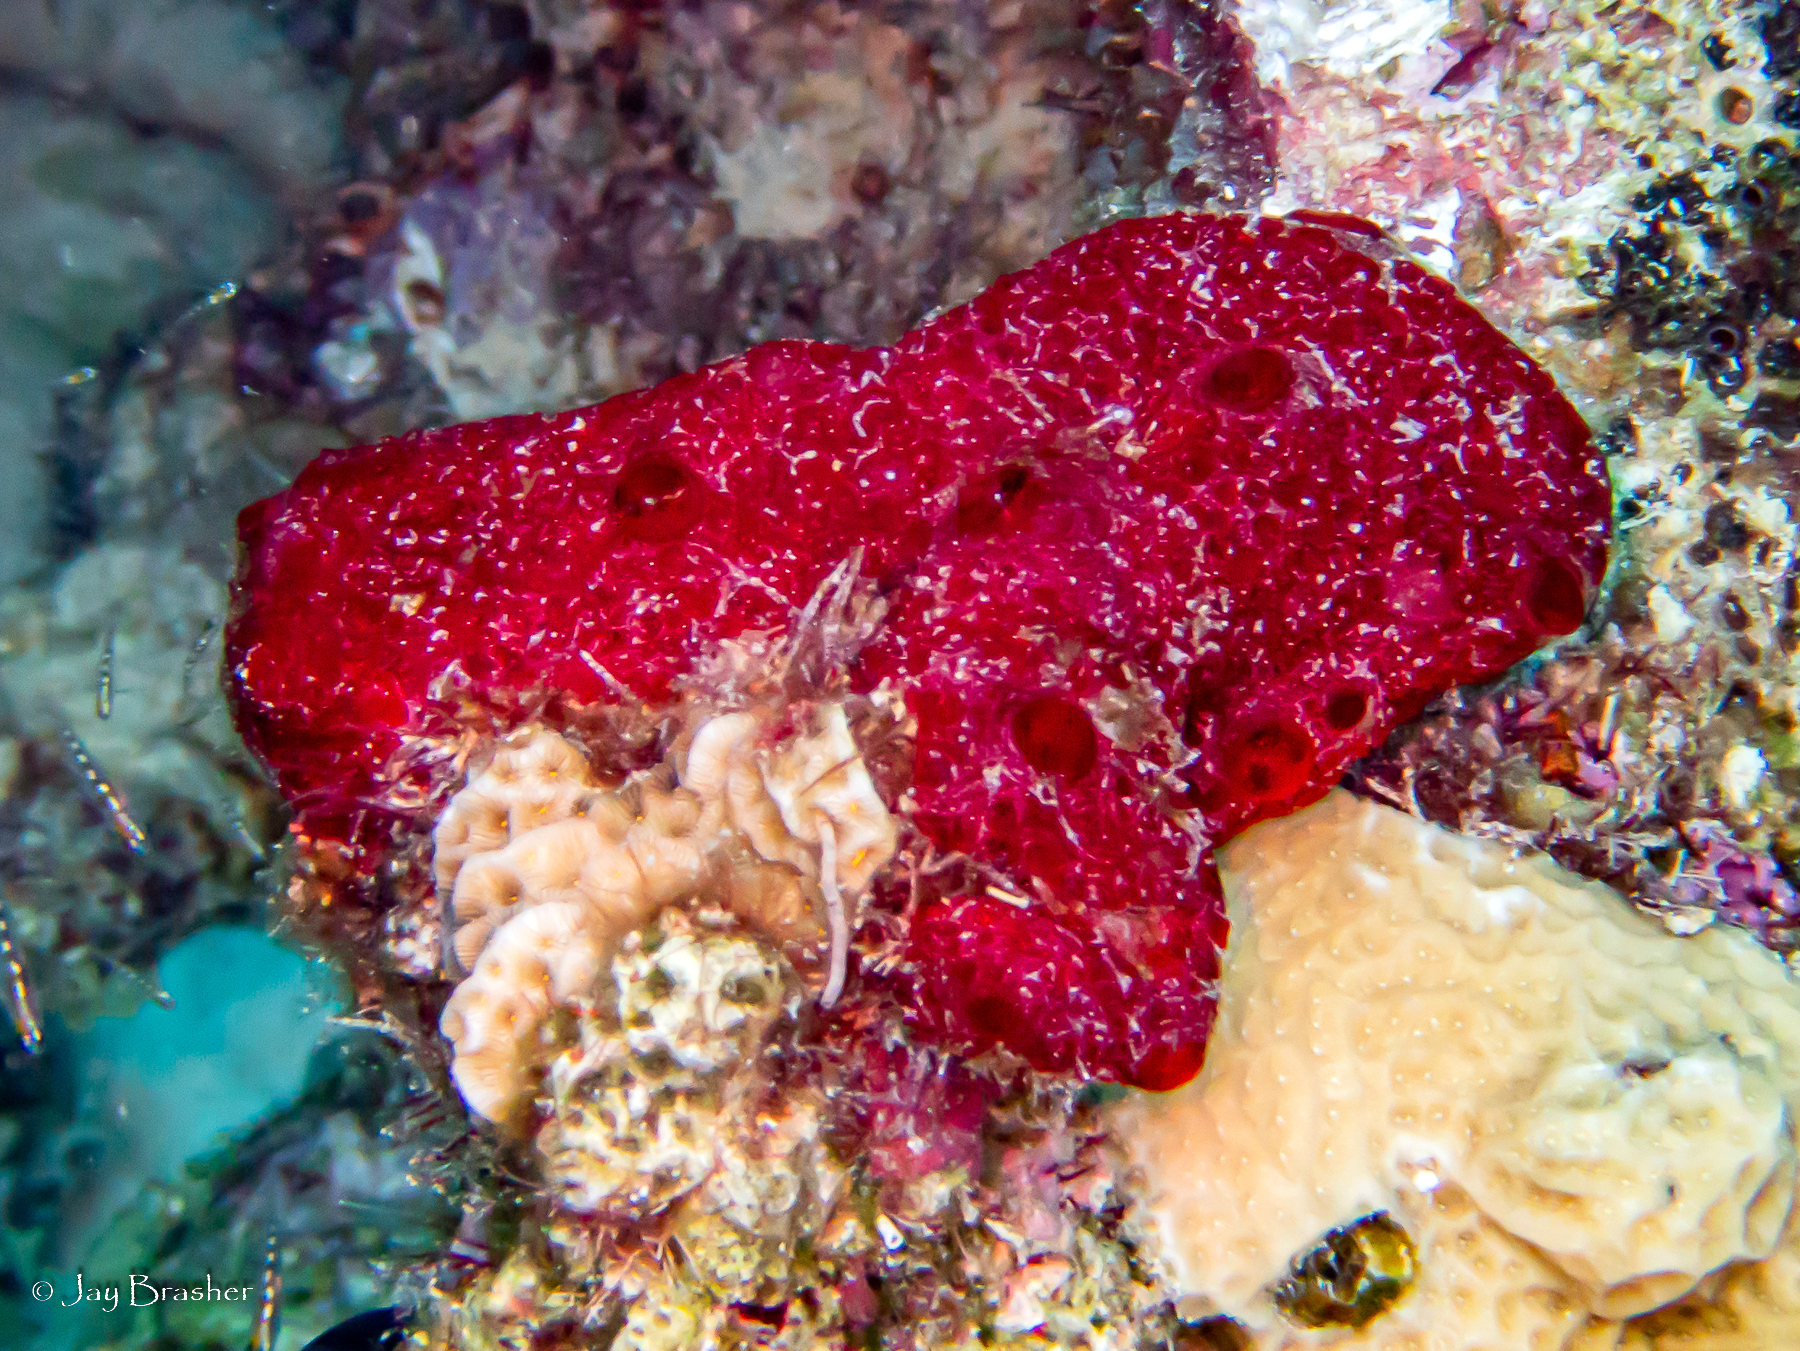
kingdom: Animalia
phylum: Porifera
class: Demospongiae
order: Poecilosclerida
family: Hymedesmiidae
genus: Phorbas
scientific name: Phorbas amaranthus
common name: Red sieve encrusting sponge
